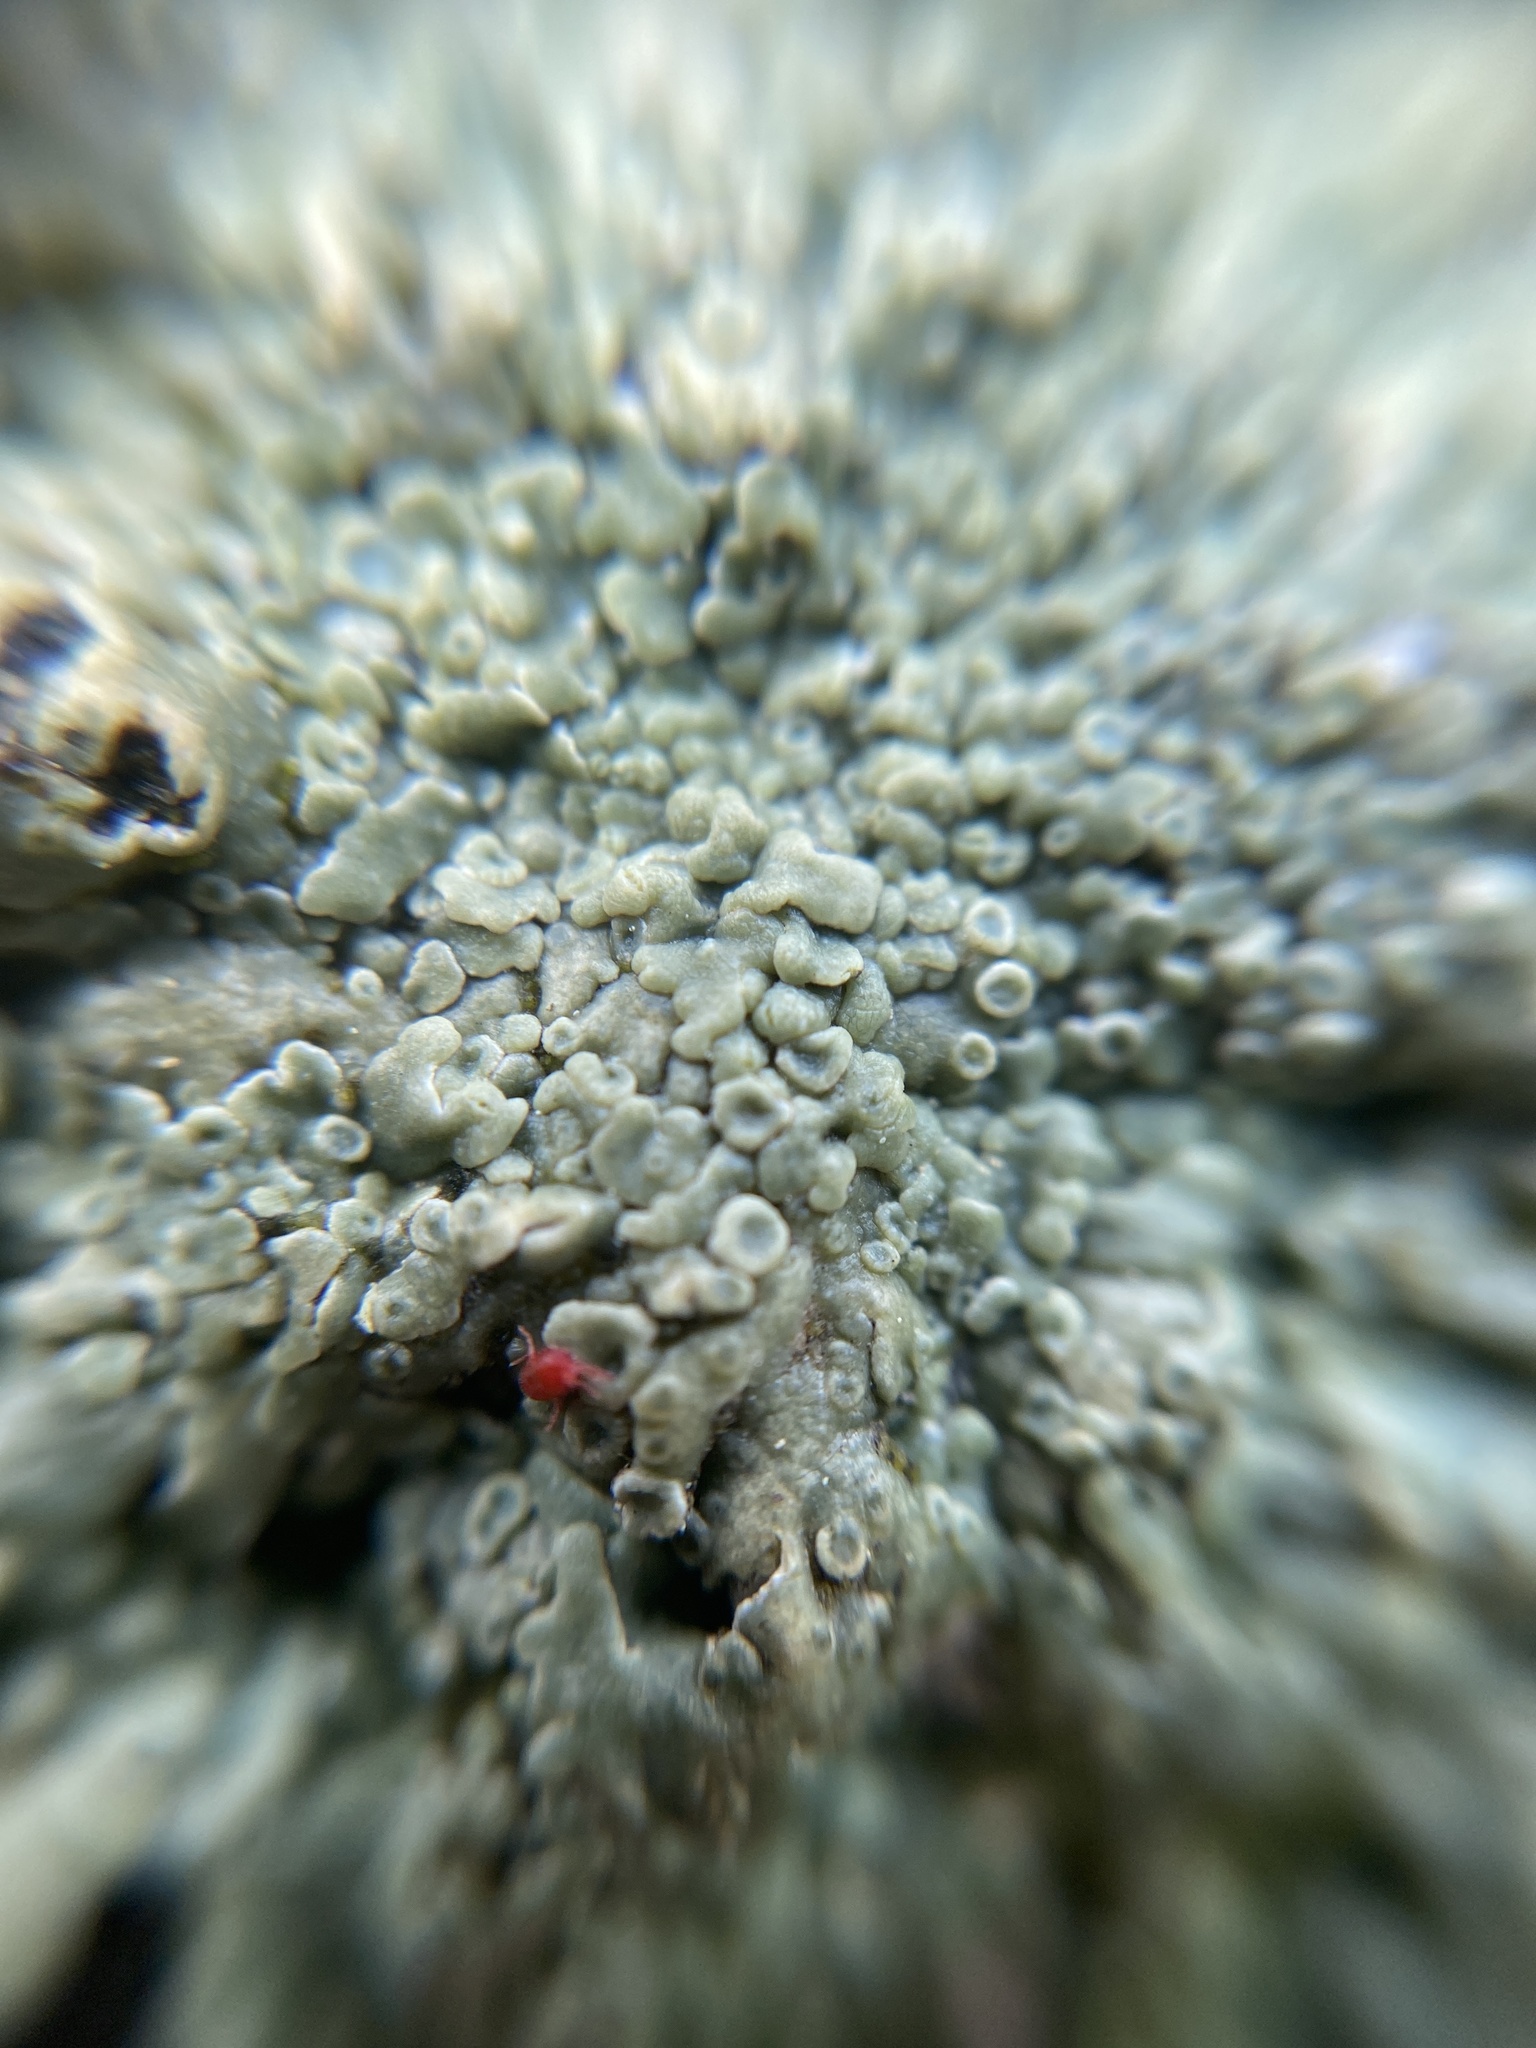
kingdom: Fungi
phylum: Ascomycota
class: Lecanoromycetes
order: Lecanorales
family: Lecanoraceae
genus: Protoparmeliopsis
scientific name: Protoparmeliopsis muralis
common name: Stonewall rim lichen
